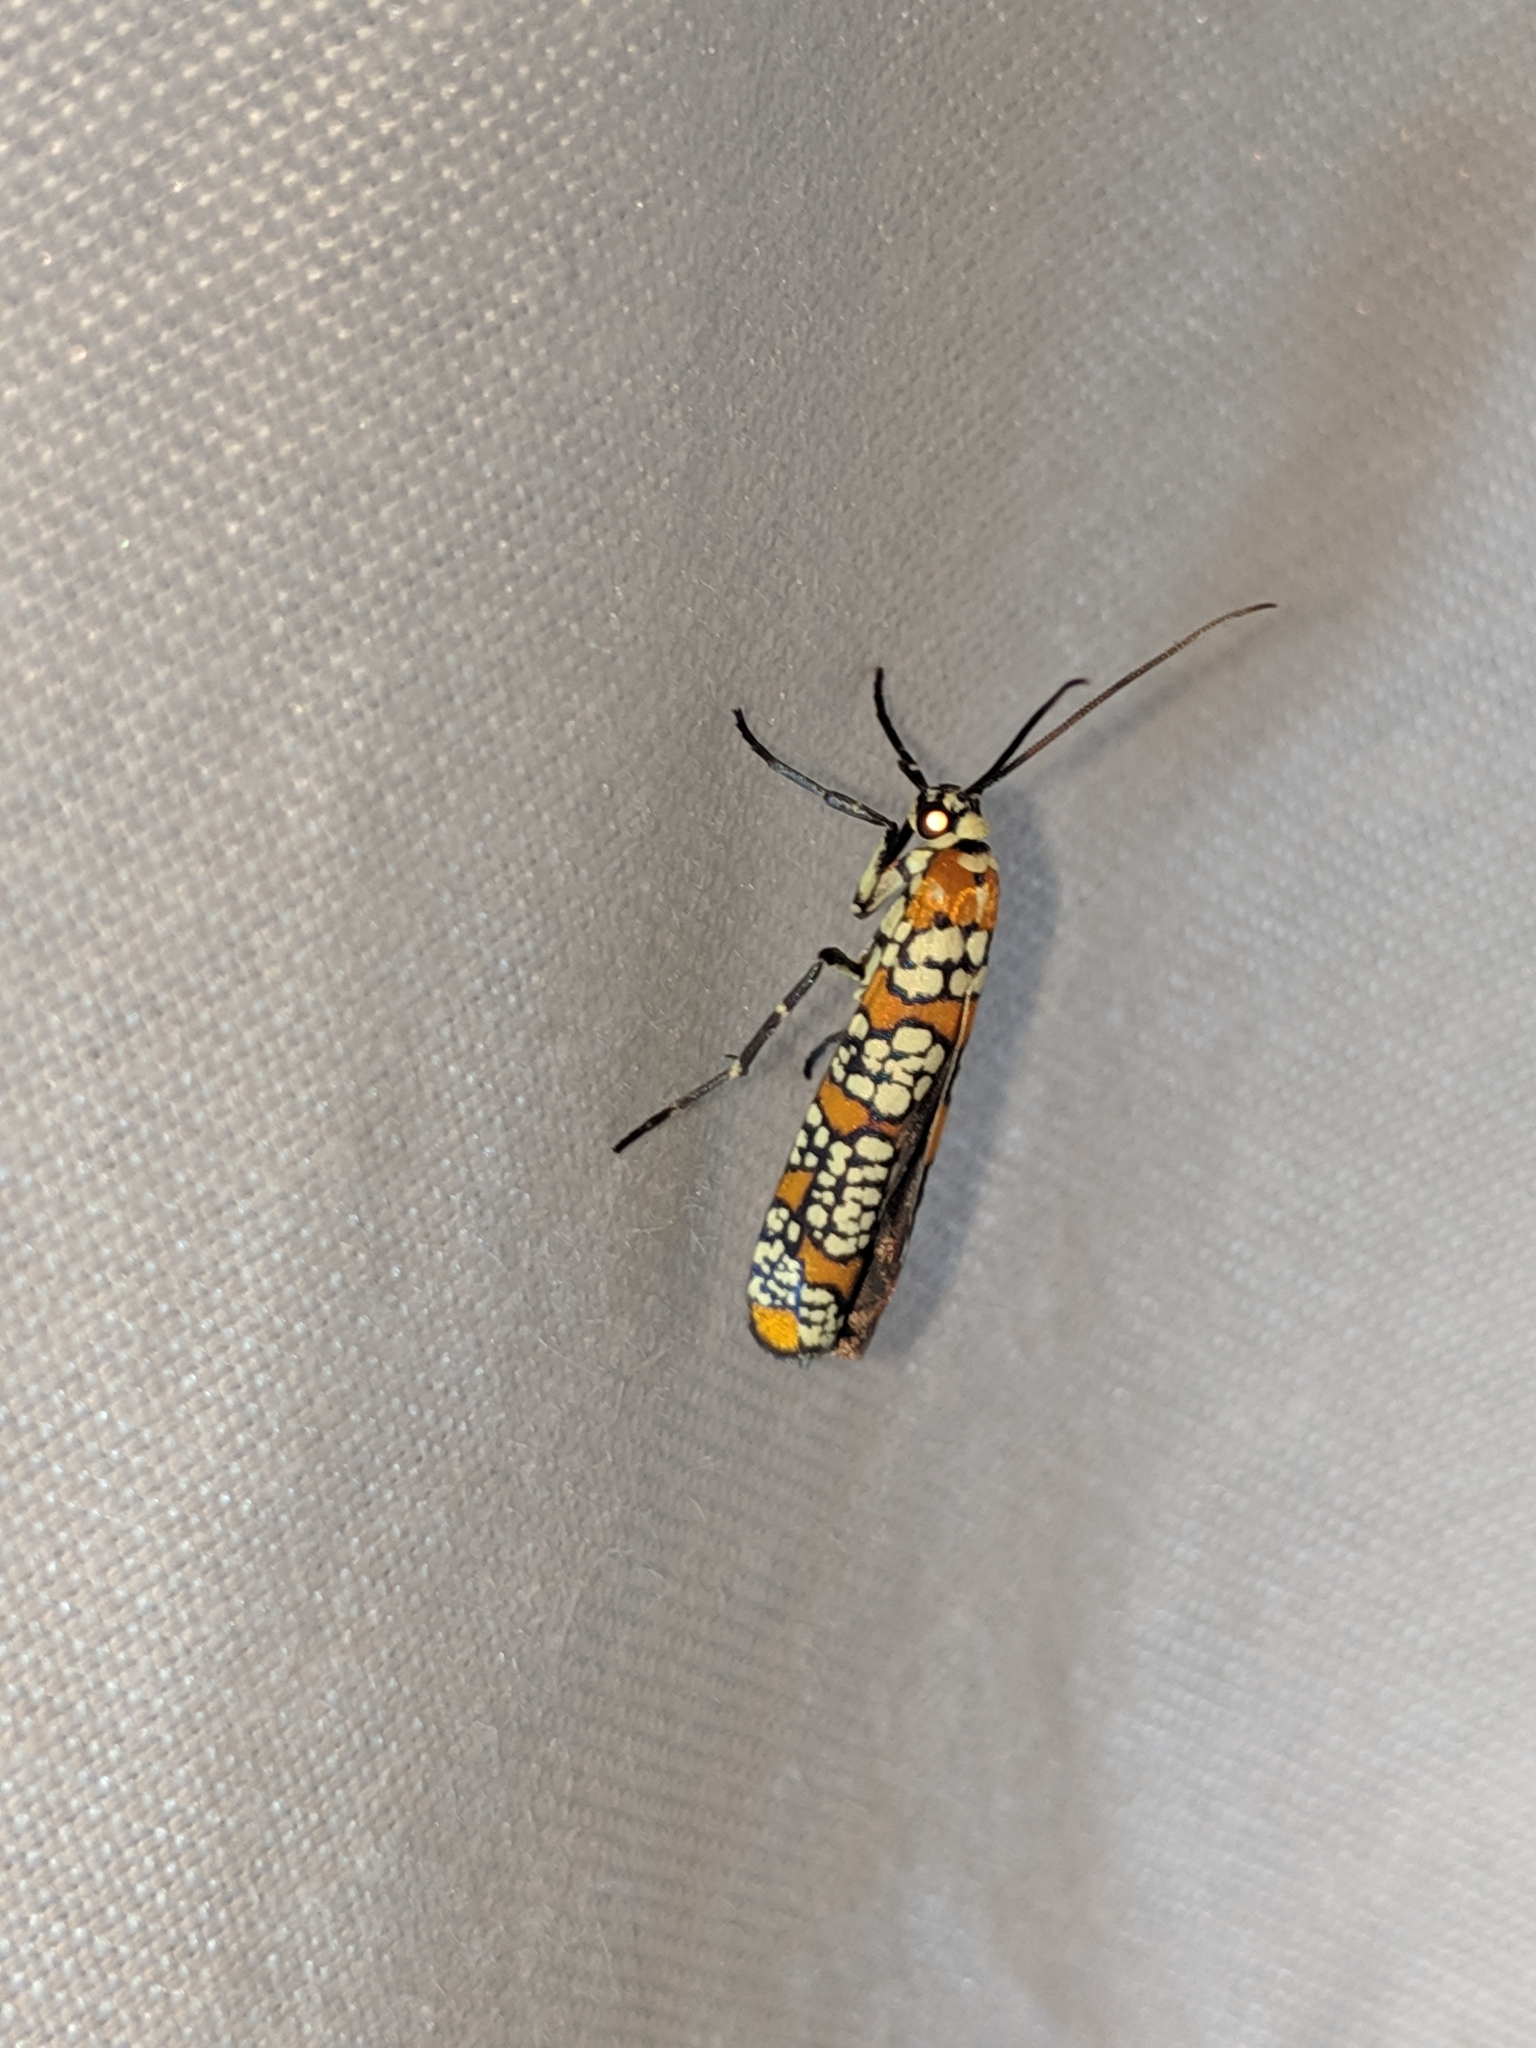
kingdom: Animalia
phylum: Arthropoda
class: Insecta
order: Lepidoptera
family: Attevidae
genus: Atteva
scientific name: Atteva punctella
